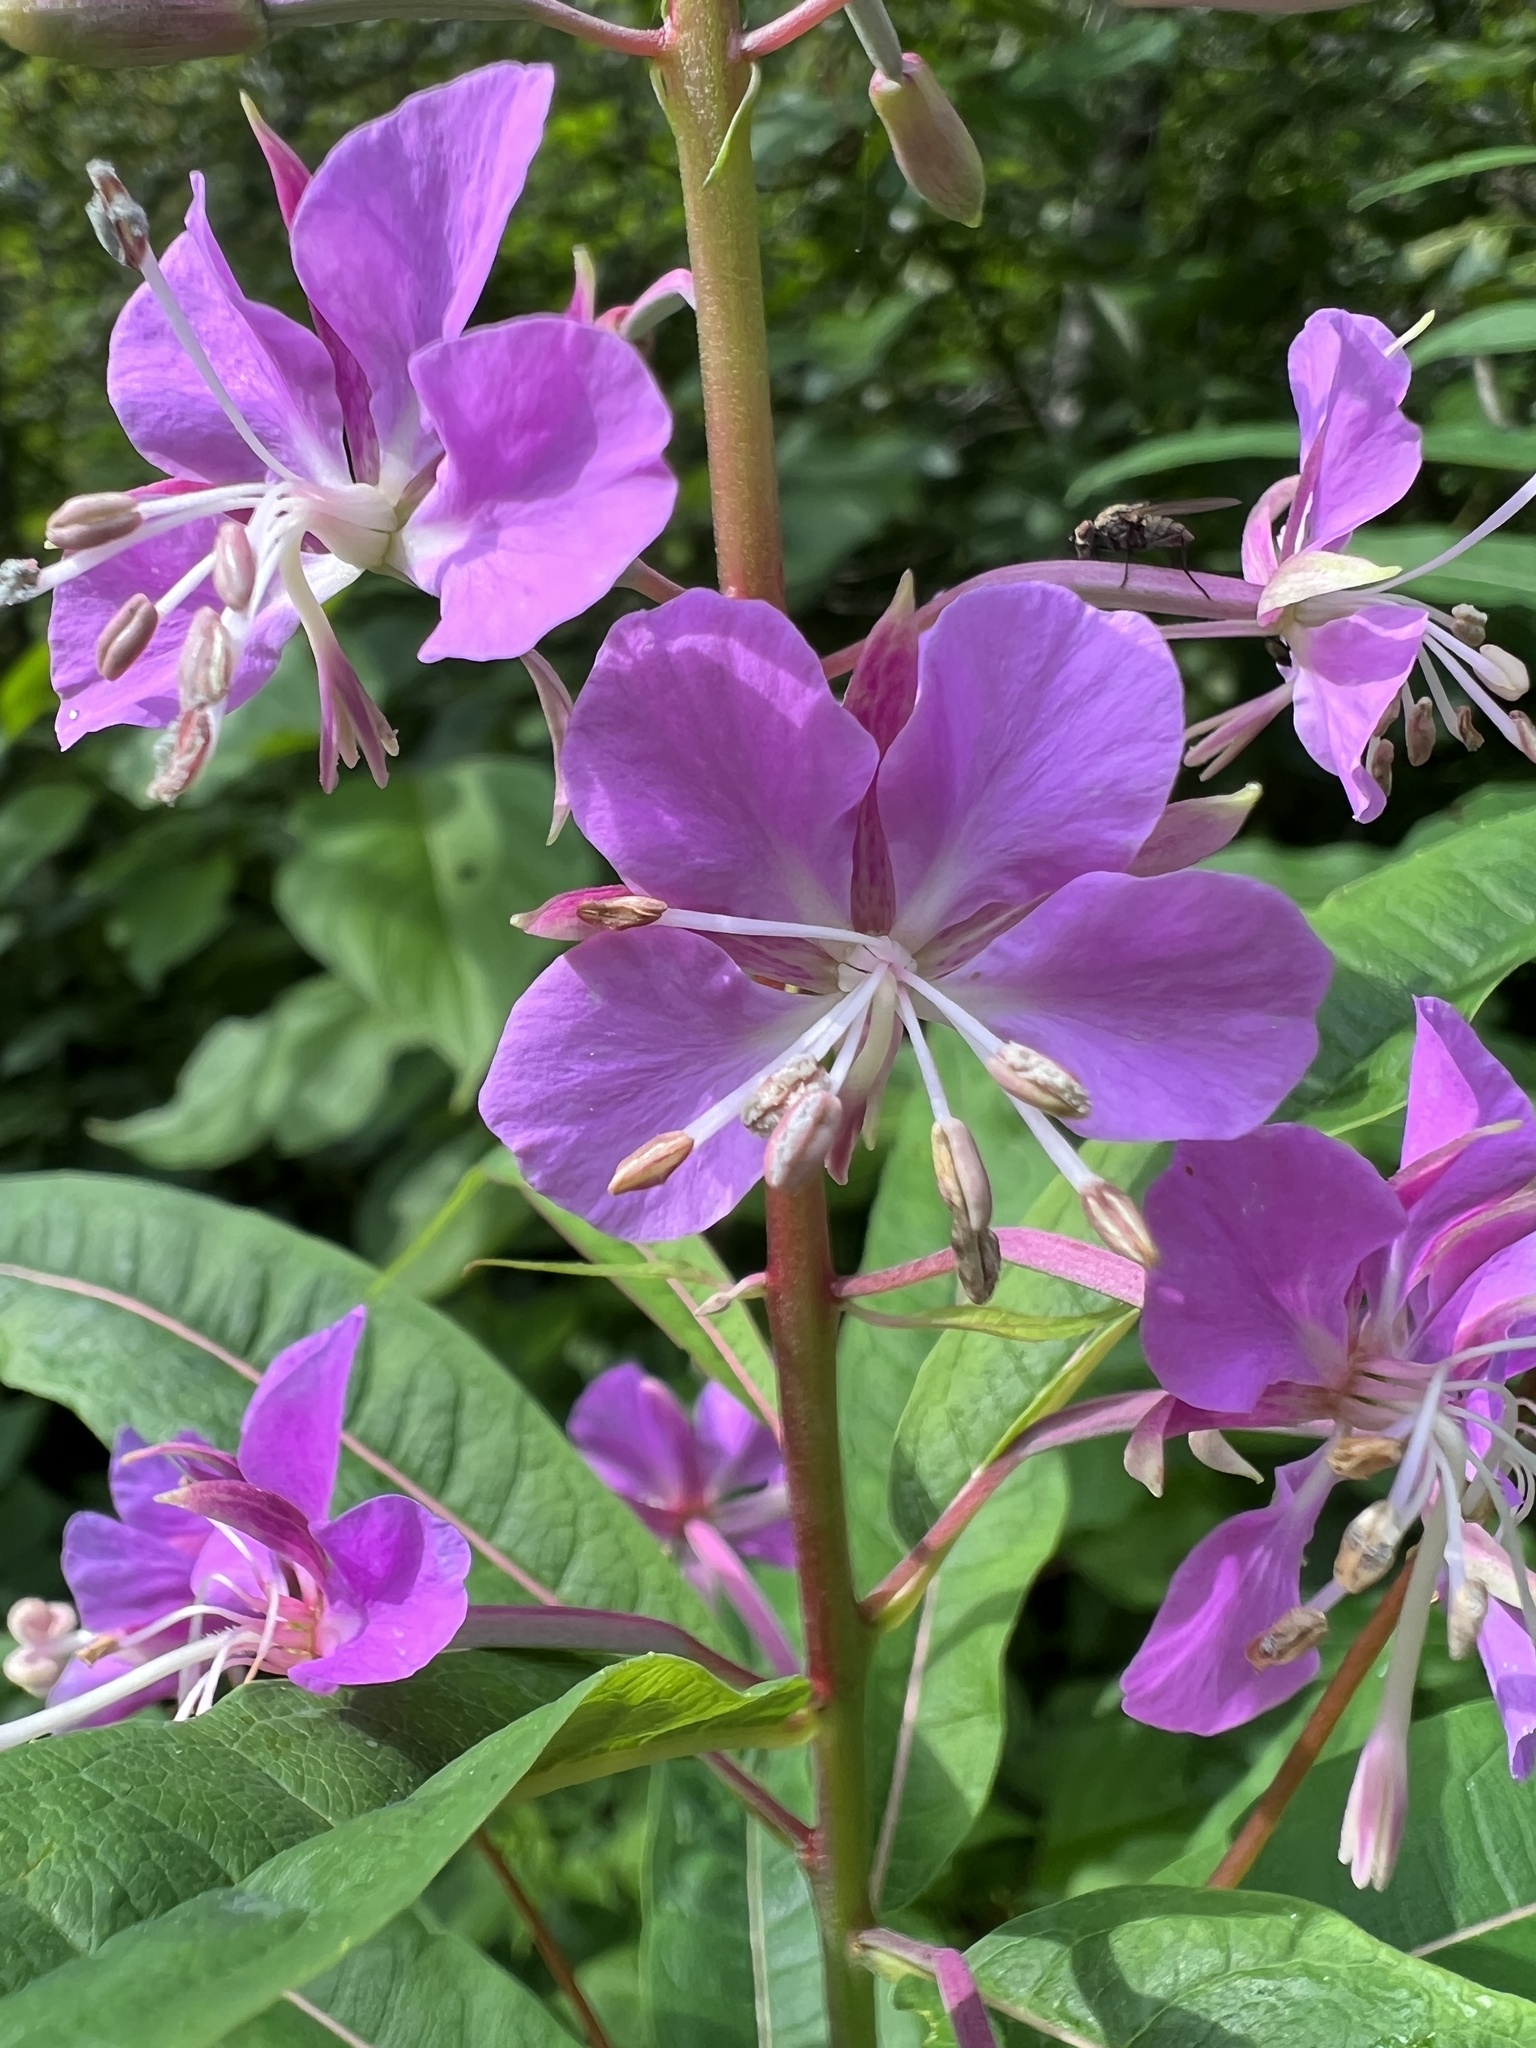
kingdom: Plantae
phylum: Tracheophyta
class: Magnoliopsida
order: Myrtales
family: Onagraceae
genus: Chamaenerion
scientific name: Chamaenerion angustifolium
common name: Fireweed
